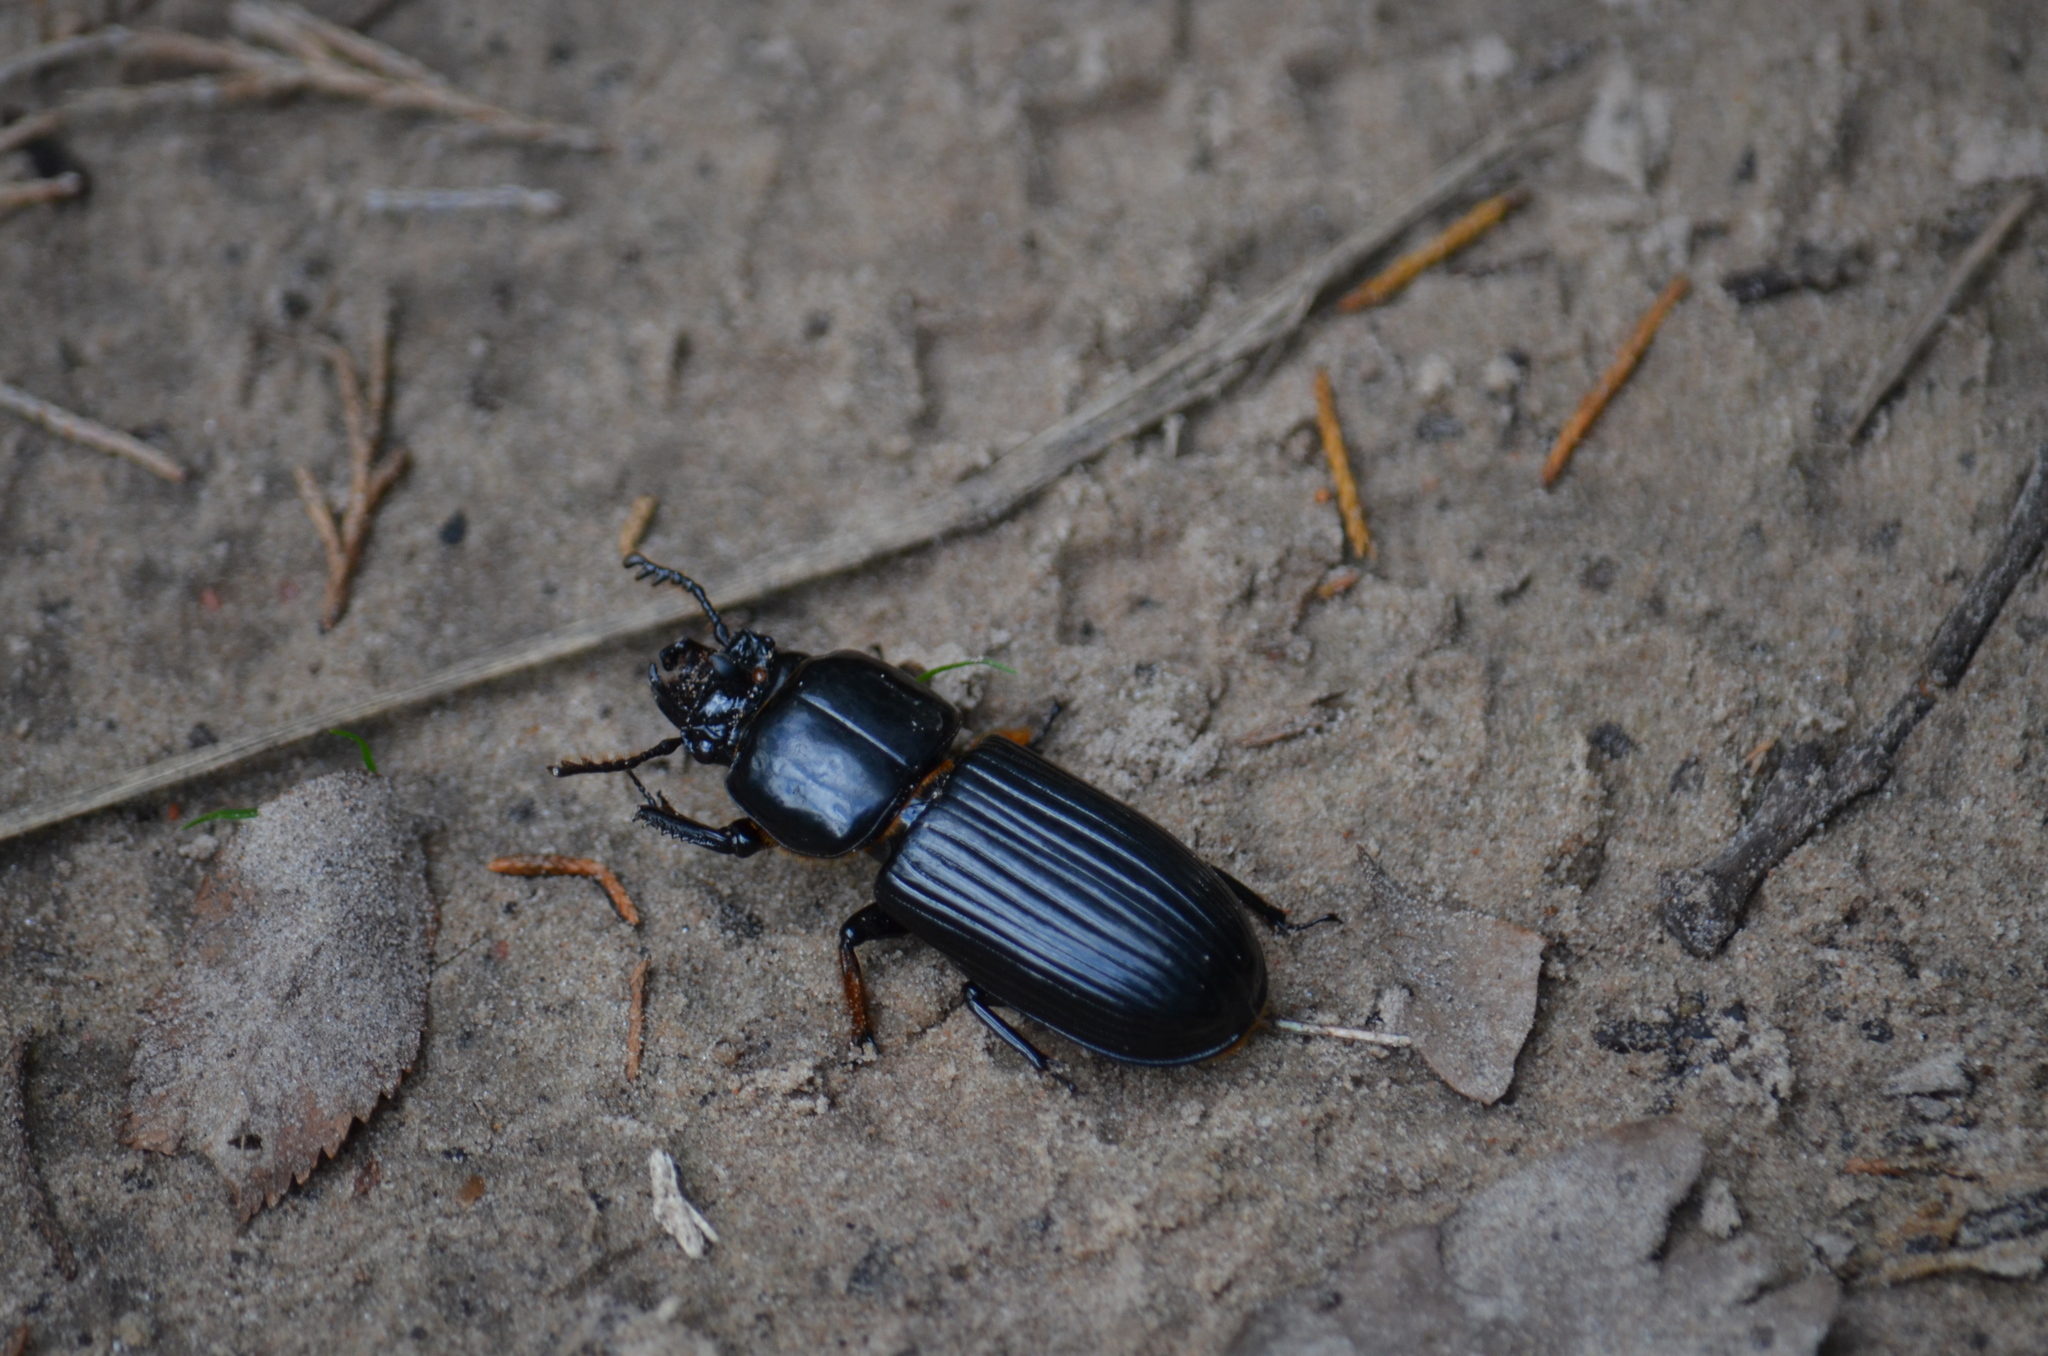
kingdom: Animalia
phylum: Arthropoda
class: Insecta
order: Coleoptera
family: Passalidae
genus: Odontotaenius
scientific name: Odontotaenius disjunctus
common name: Patent leather beetle
